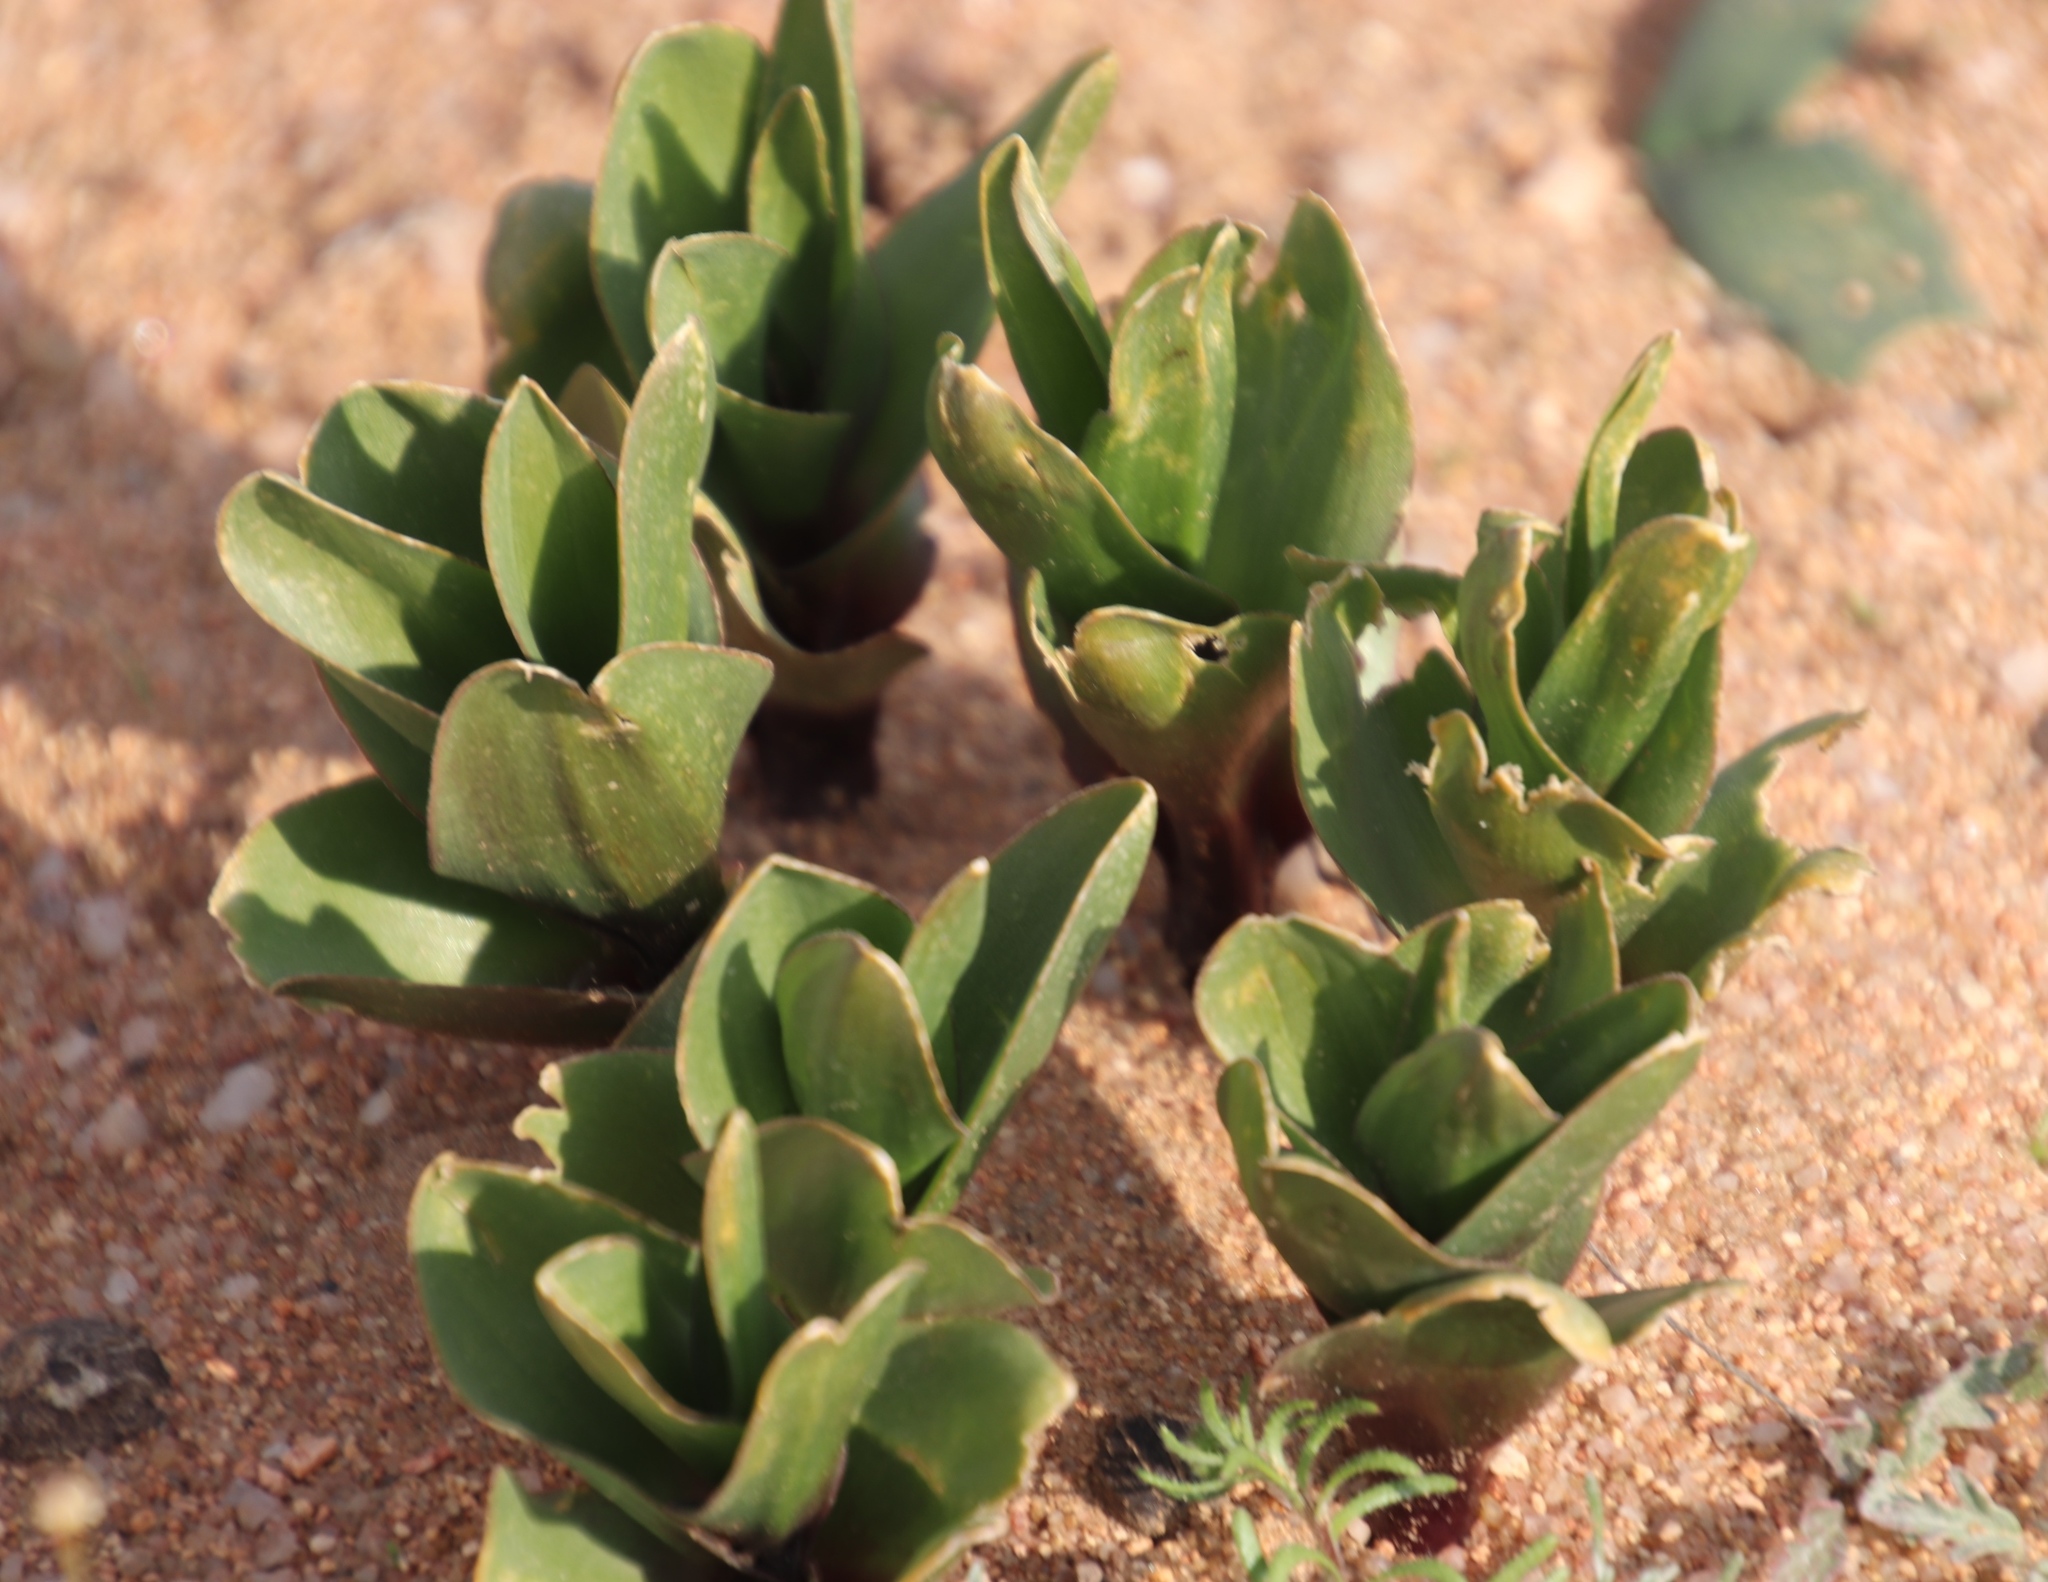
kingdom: Plantae
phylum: Tracheophyta
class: Liliopsida
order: Asparagales
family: Asparagaceae
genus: Fusifilum
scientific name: Fusifilum physodes
